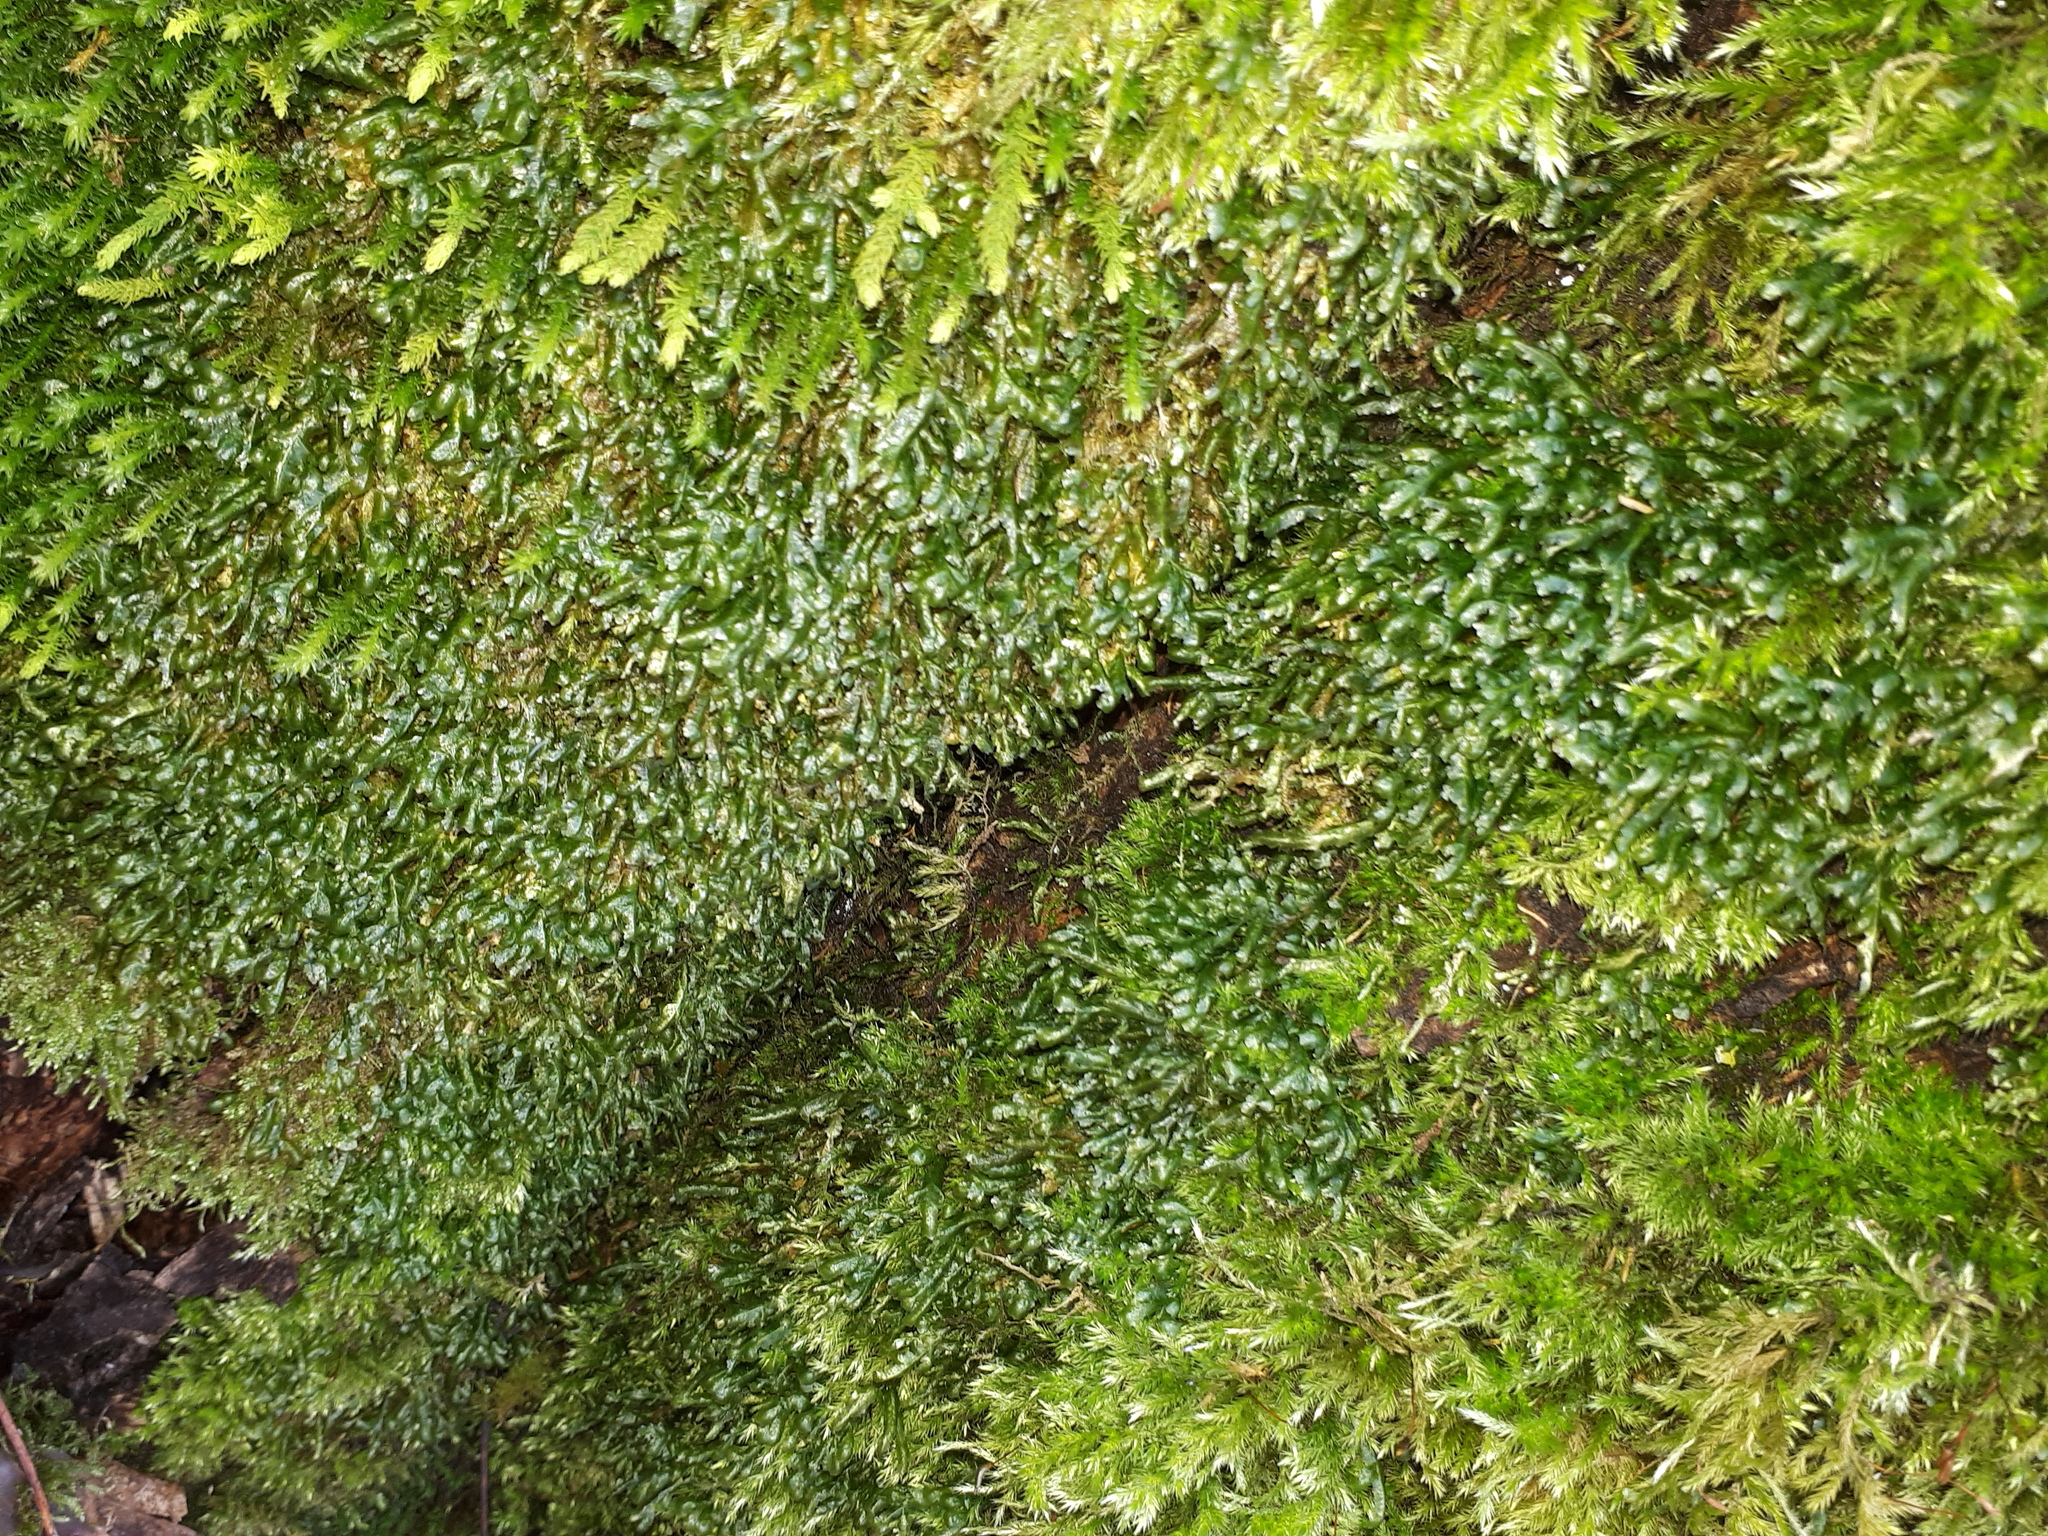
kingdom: Plantae
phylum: Bryophyta
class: Bryopsida
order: Hypnales
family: Neckeraceae
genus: Homalia
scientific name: Homalia trichomanoides
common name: Lime homalia moss
